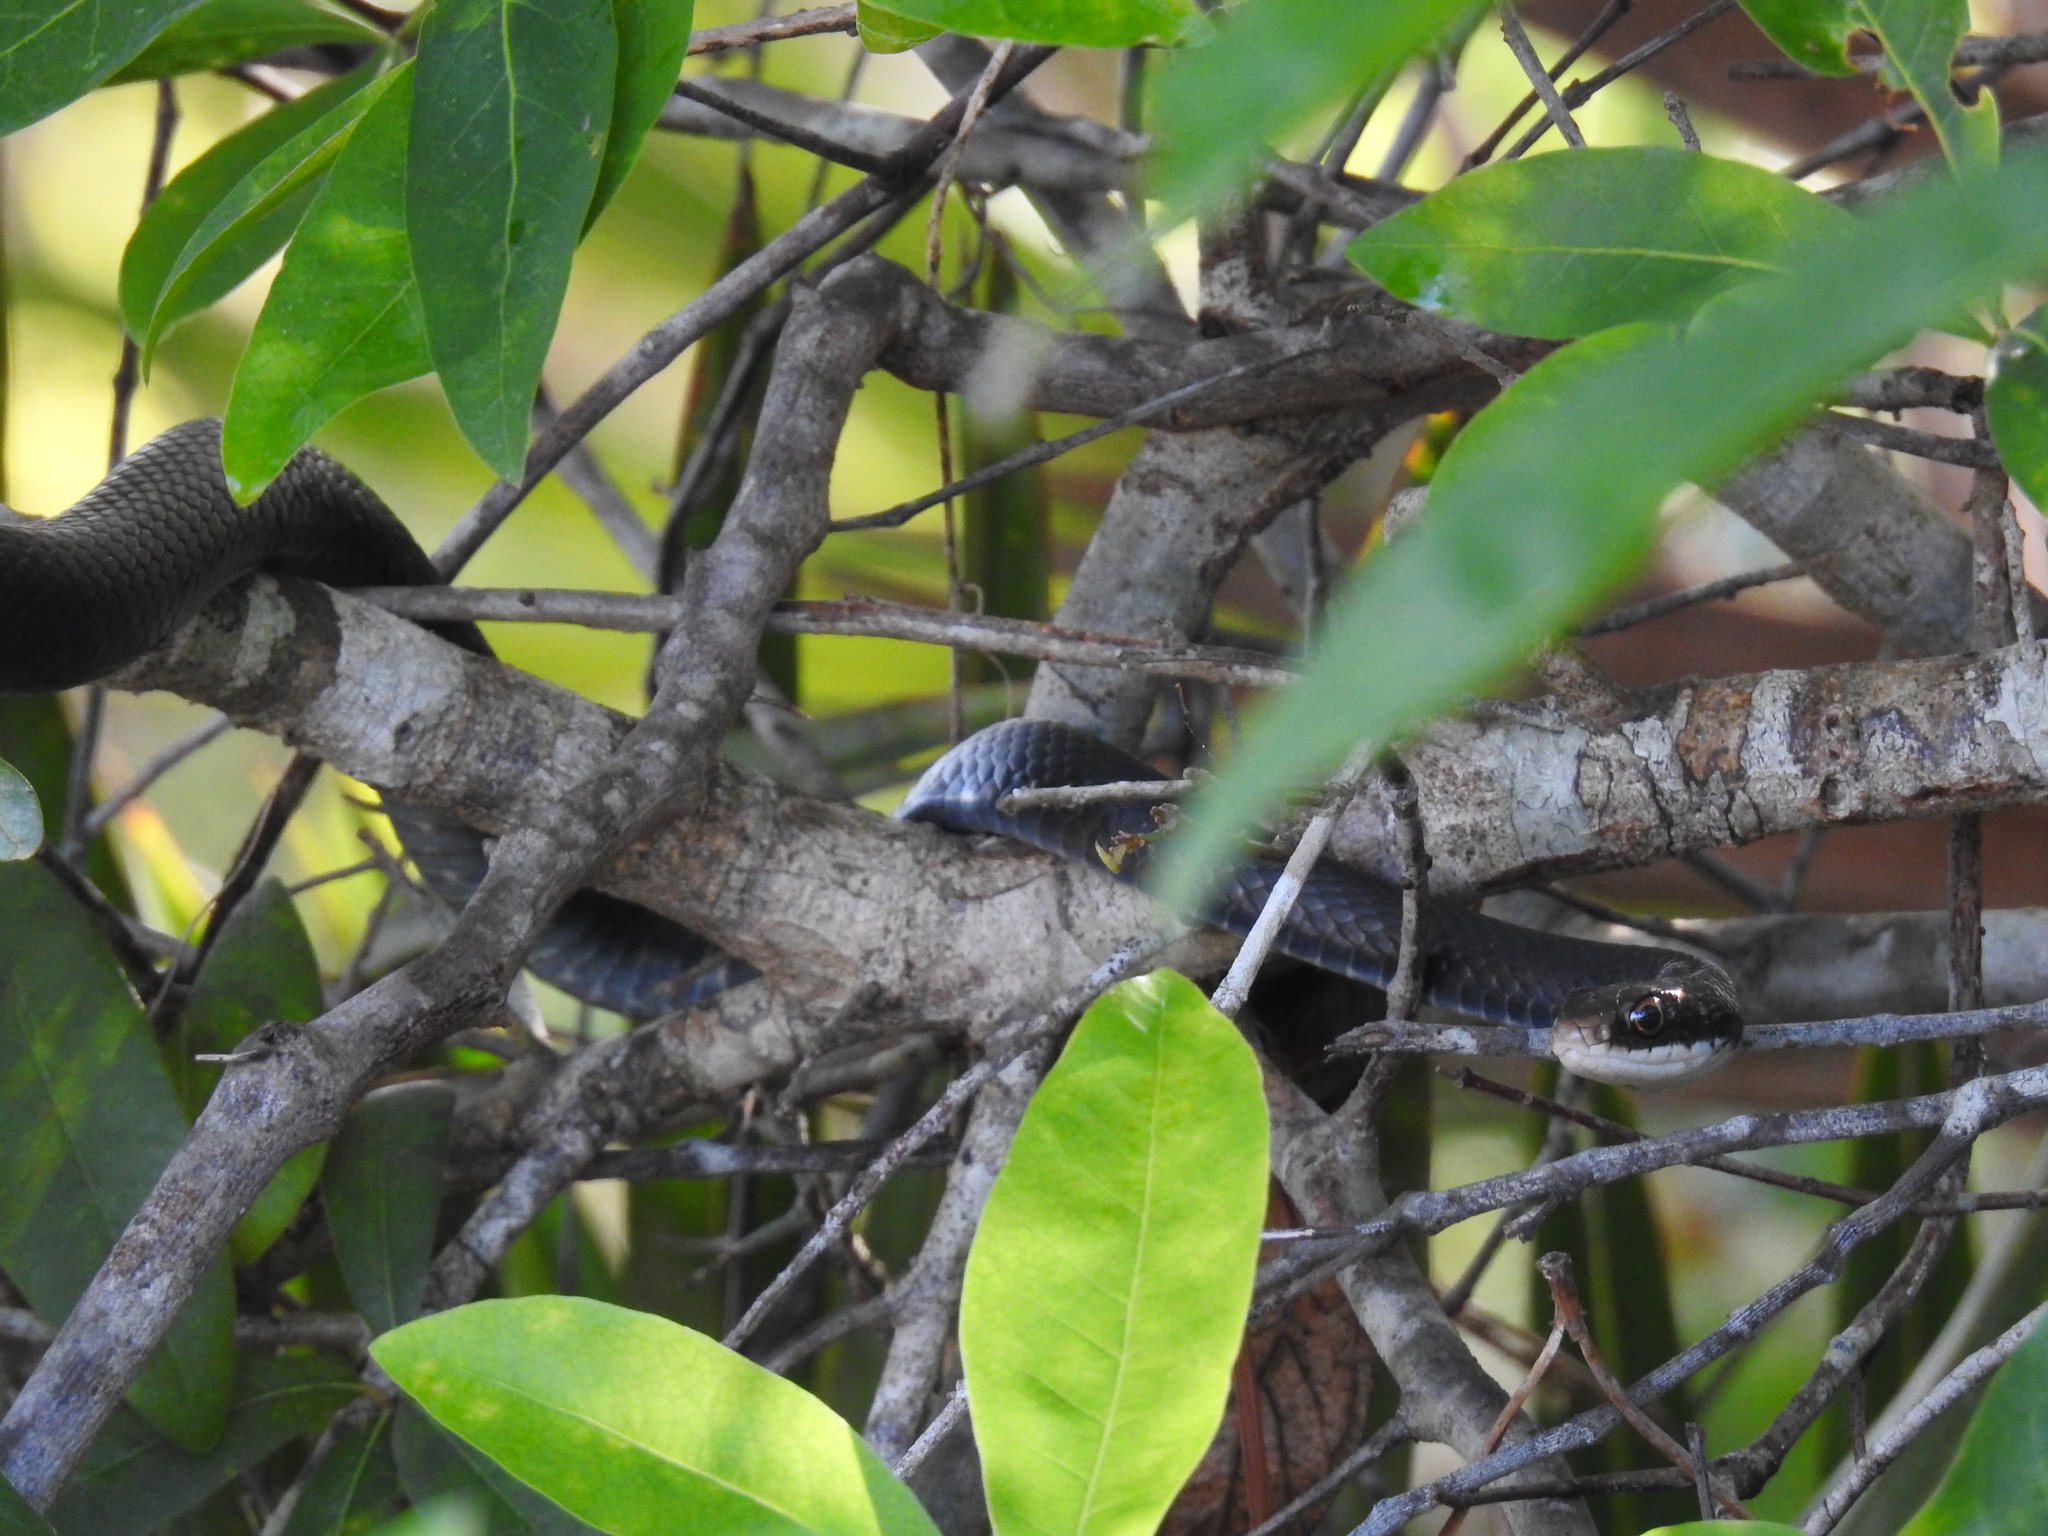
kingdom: Animalia
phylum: Chordata
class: Squamata
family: Colubridae
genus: Coluber
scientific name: Coluber constrictor
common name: Eastern racer
